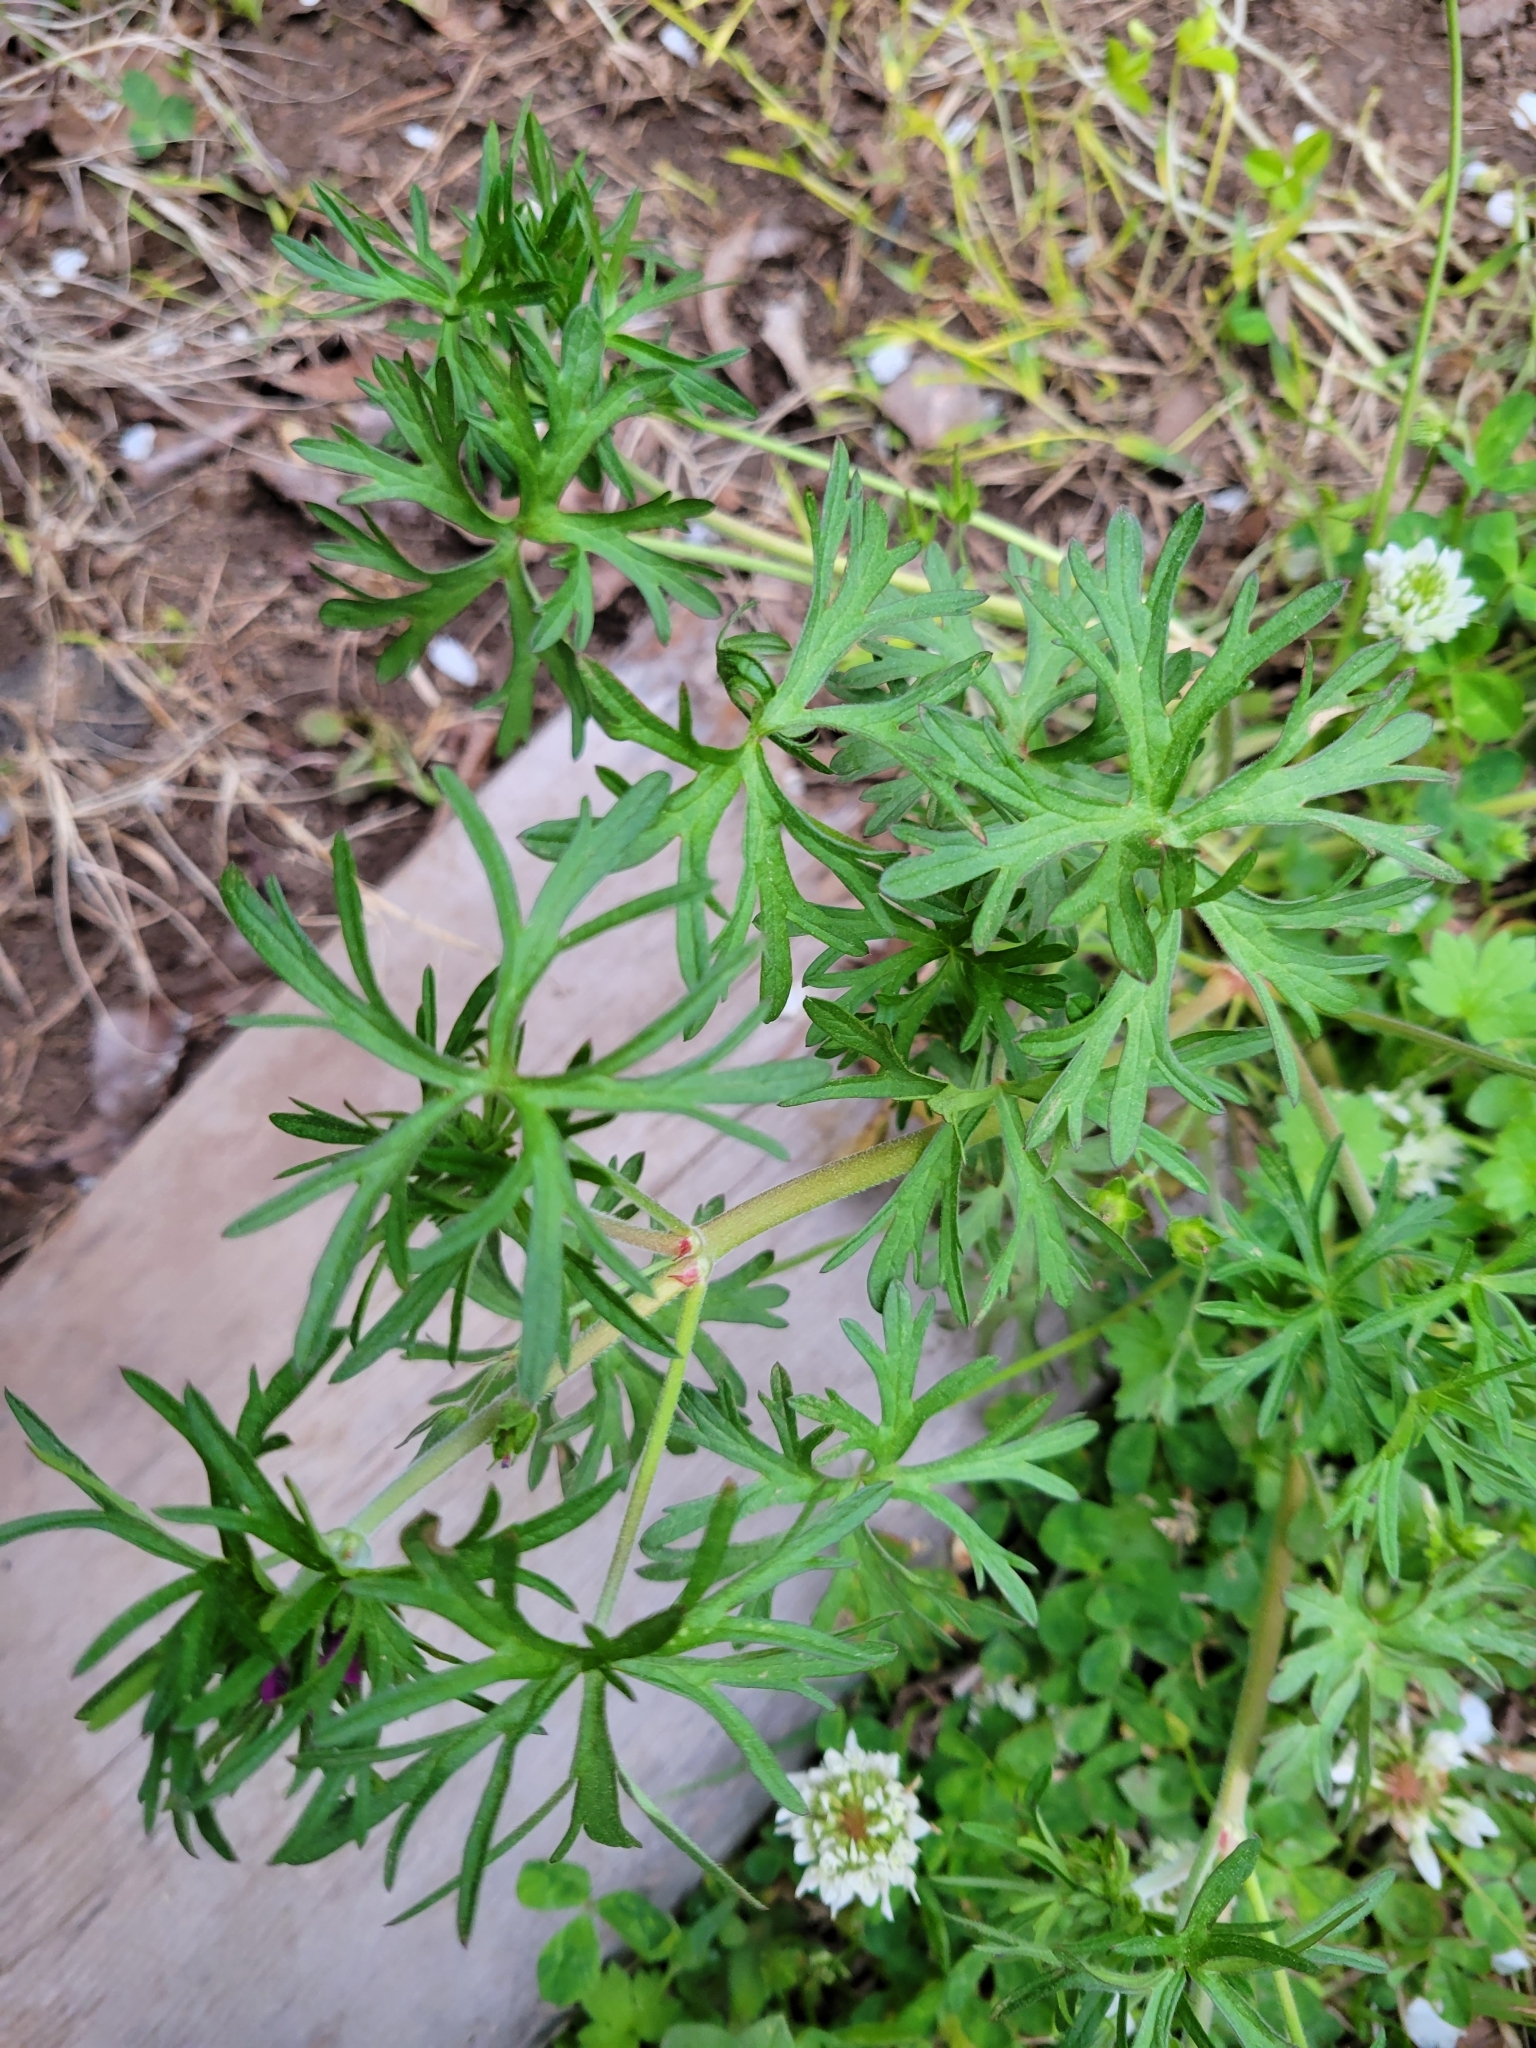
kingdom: Plantae
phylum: Tracheophyta
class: Magnoliopsida
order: Geraniales
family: Geraniaceae
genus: Geranium
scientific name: Geranium dissectum
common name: Cut-leaved crane's-bill
